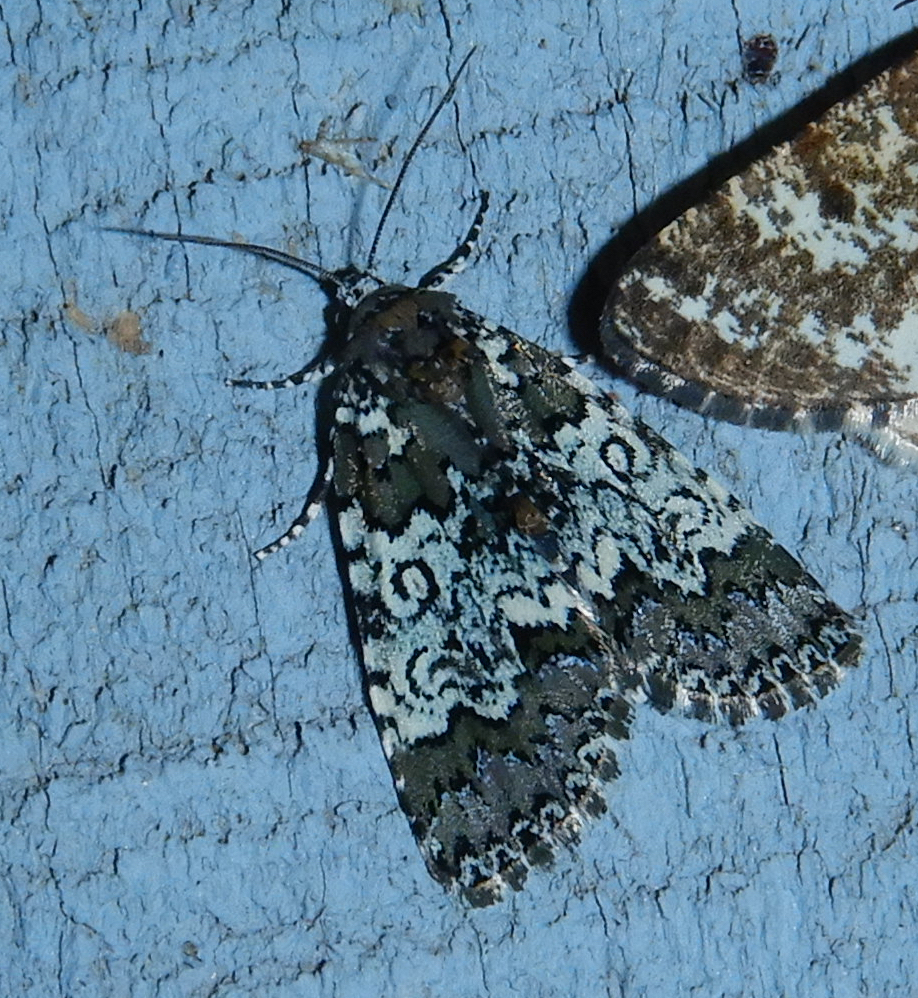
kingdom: Animalia
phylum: Arthropoda
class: Insecta
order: Lepidoptera
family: Noctuidae
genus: Cerma
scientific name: Cerma cora
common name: Bird dropping moth
